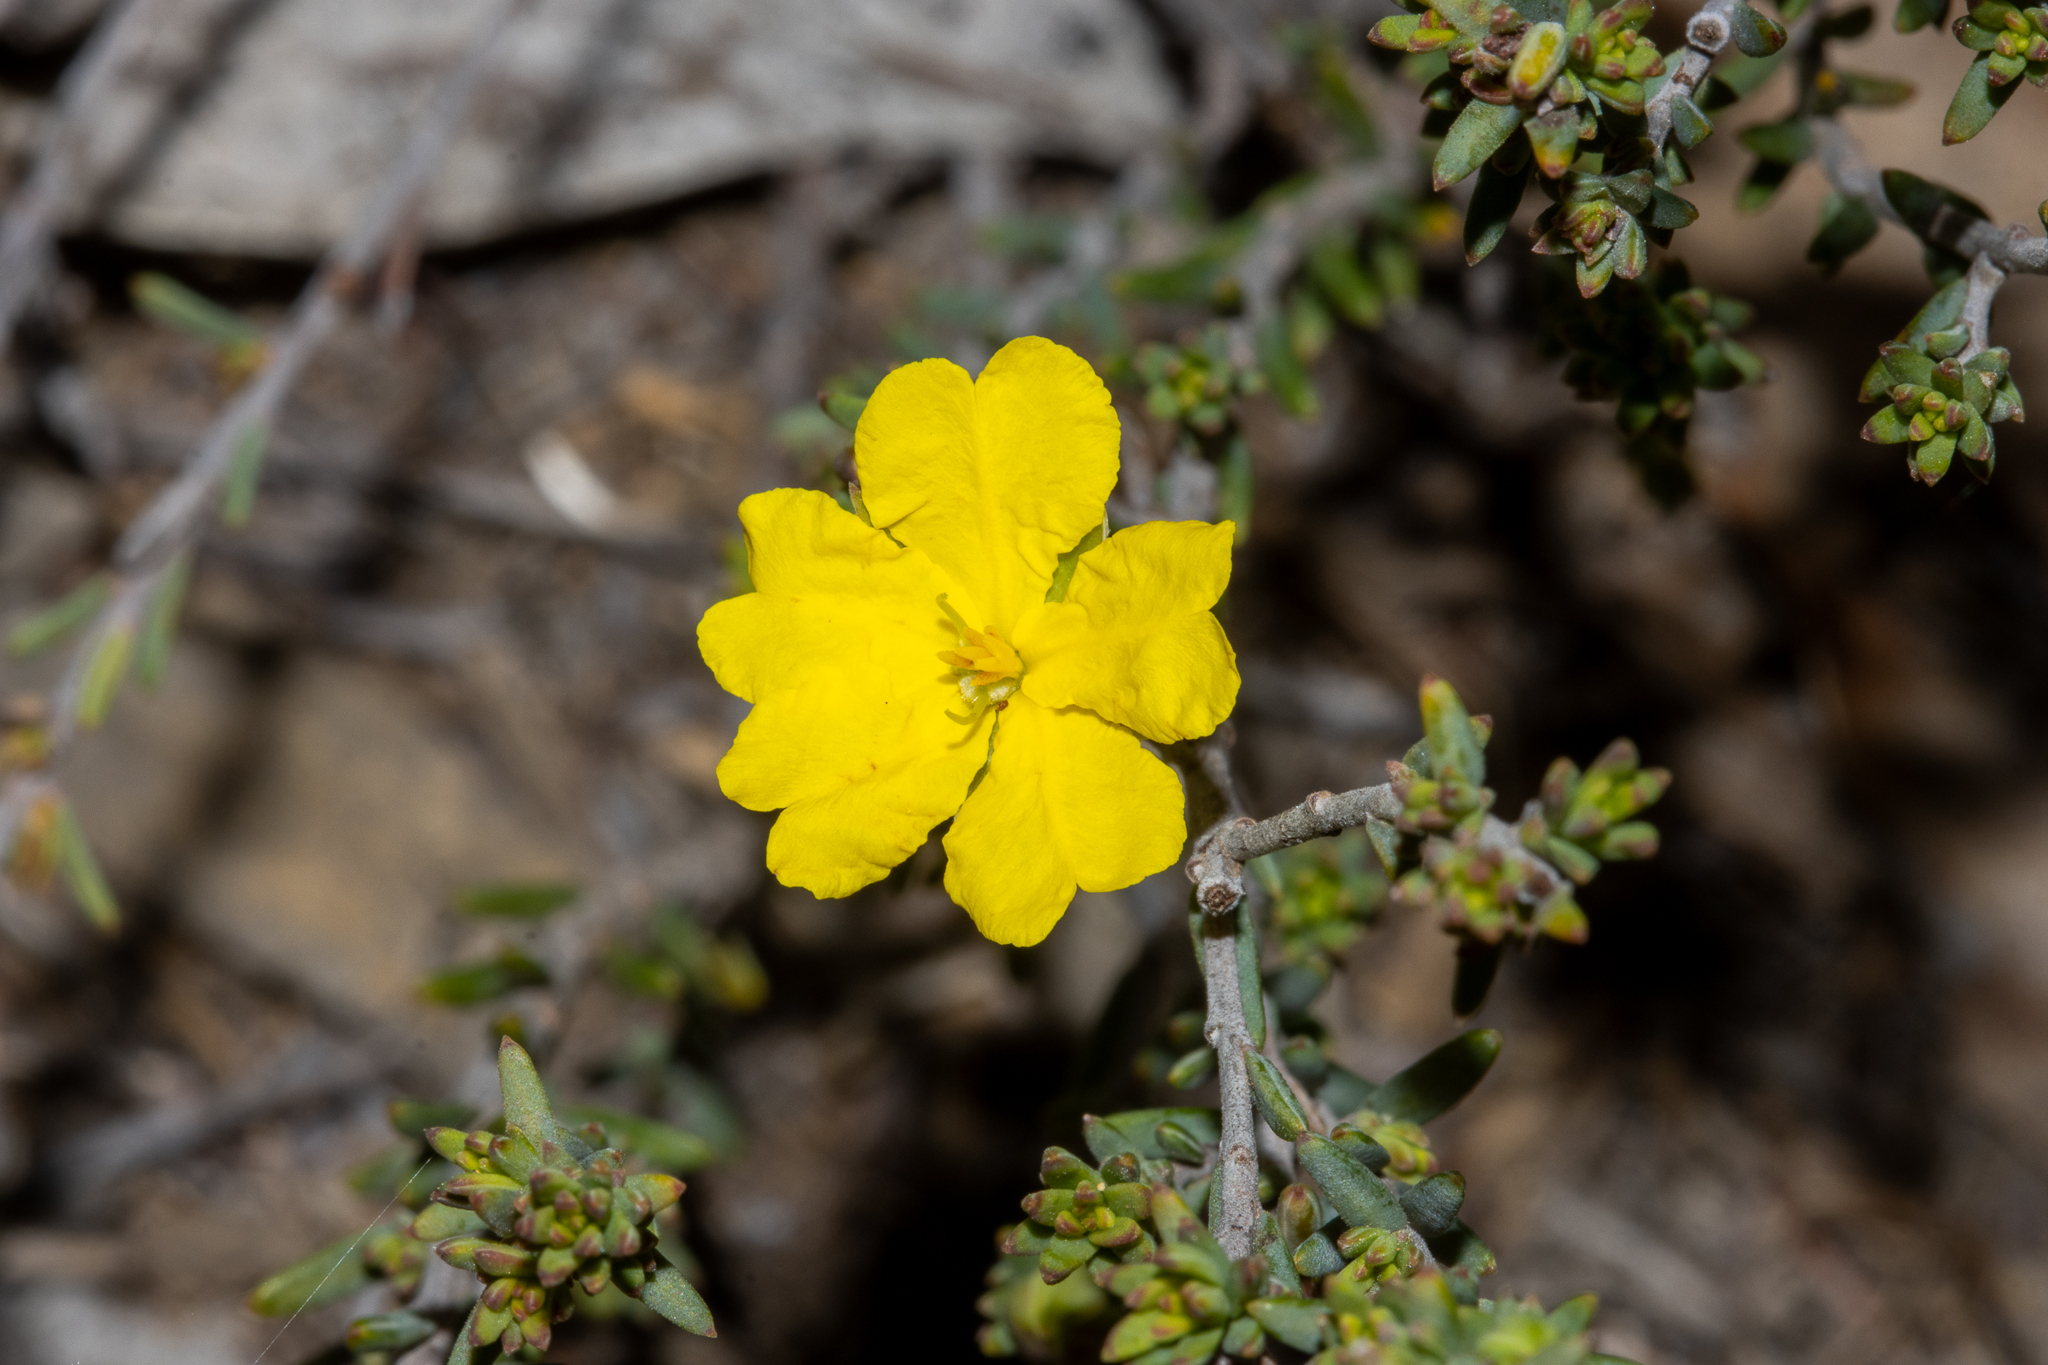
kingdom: Plantae
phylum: Tracheophyta
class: Magnoliopsida
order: Dilleniales
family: Dilleniaceae
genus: Hibbertia
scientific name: Hibbertia devitata
